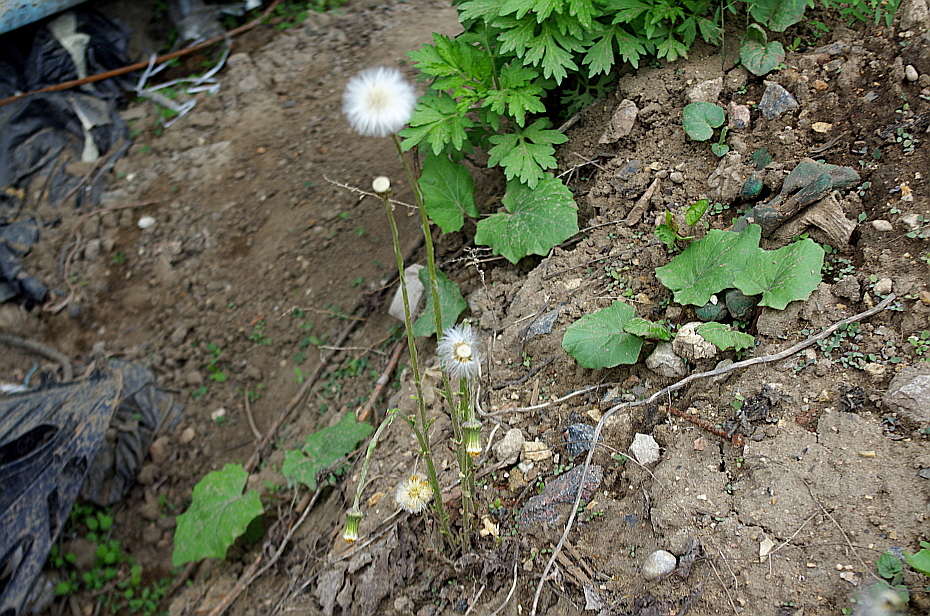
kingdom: Plantae
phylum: Tracheophyta
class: Magnoliopsida
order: Asterales
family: Asteraceae
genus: Tussilago
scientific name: Tussilago farfara
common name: Coltsfoot
